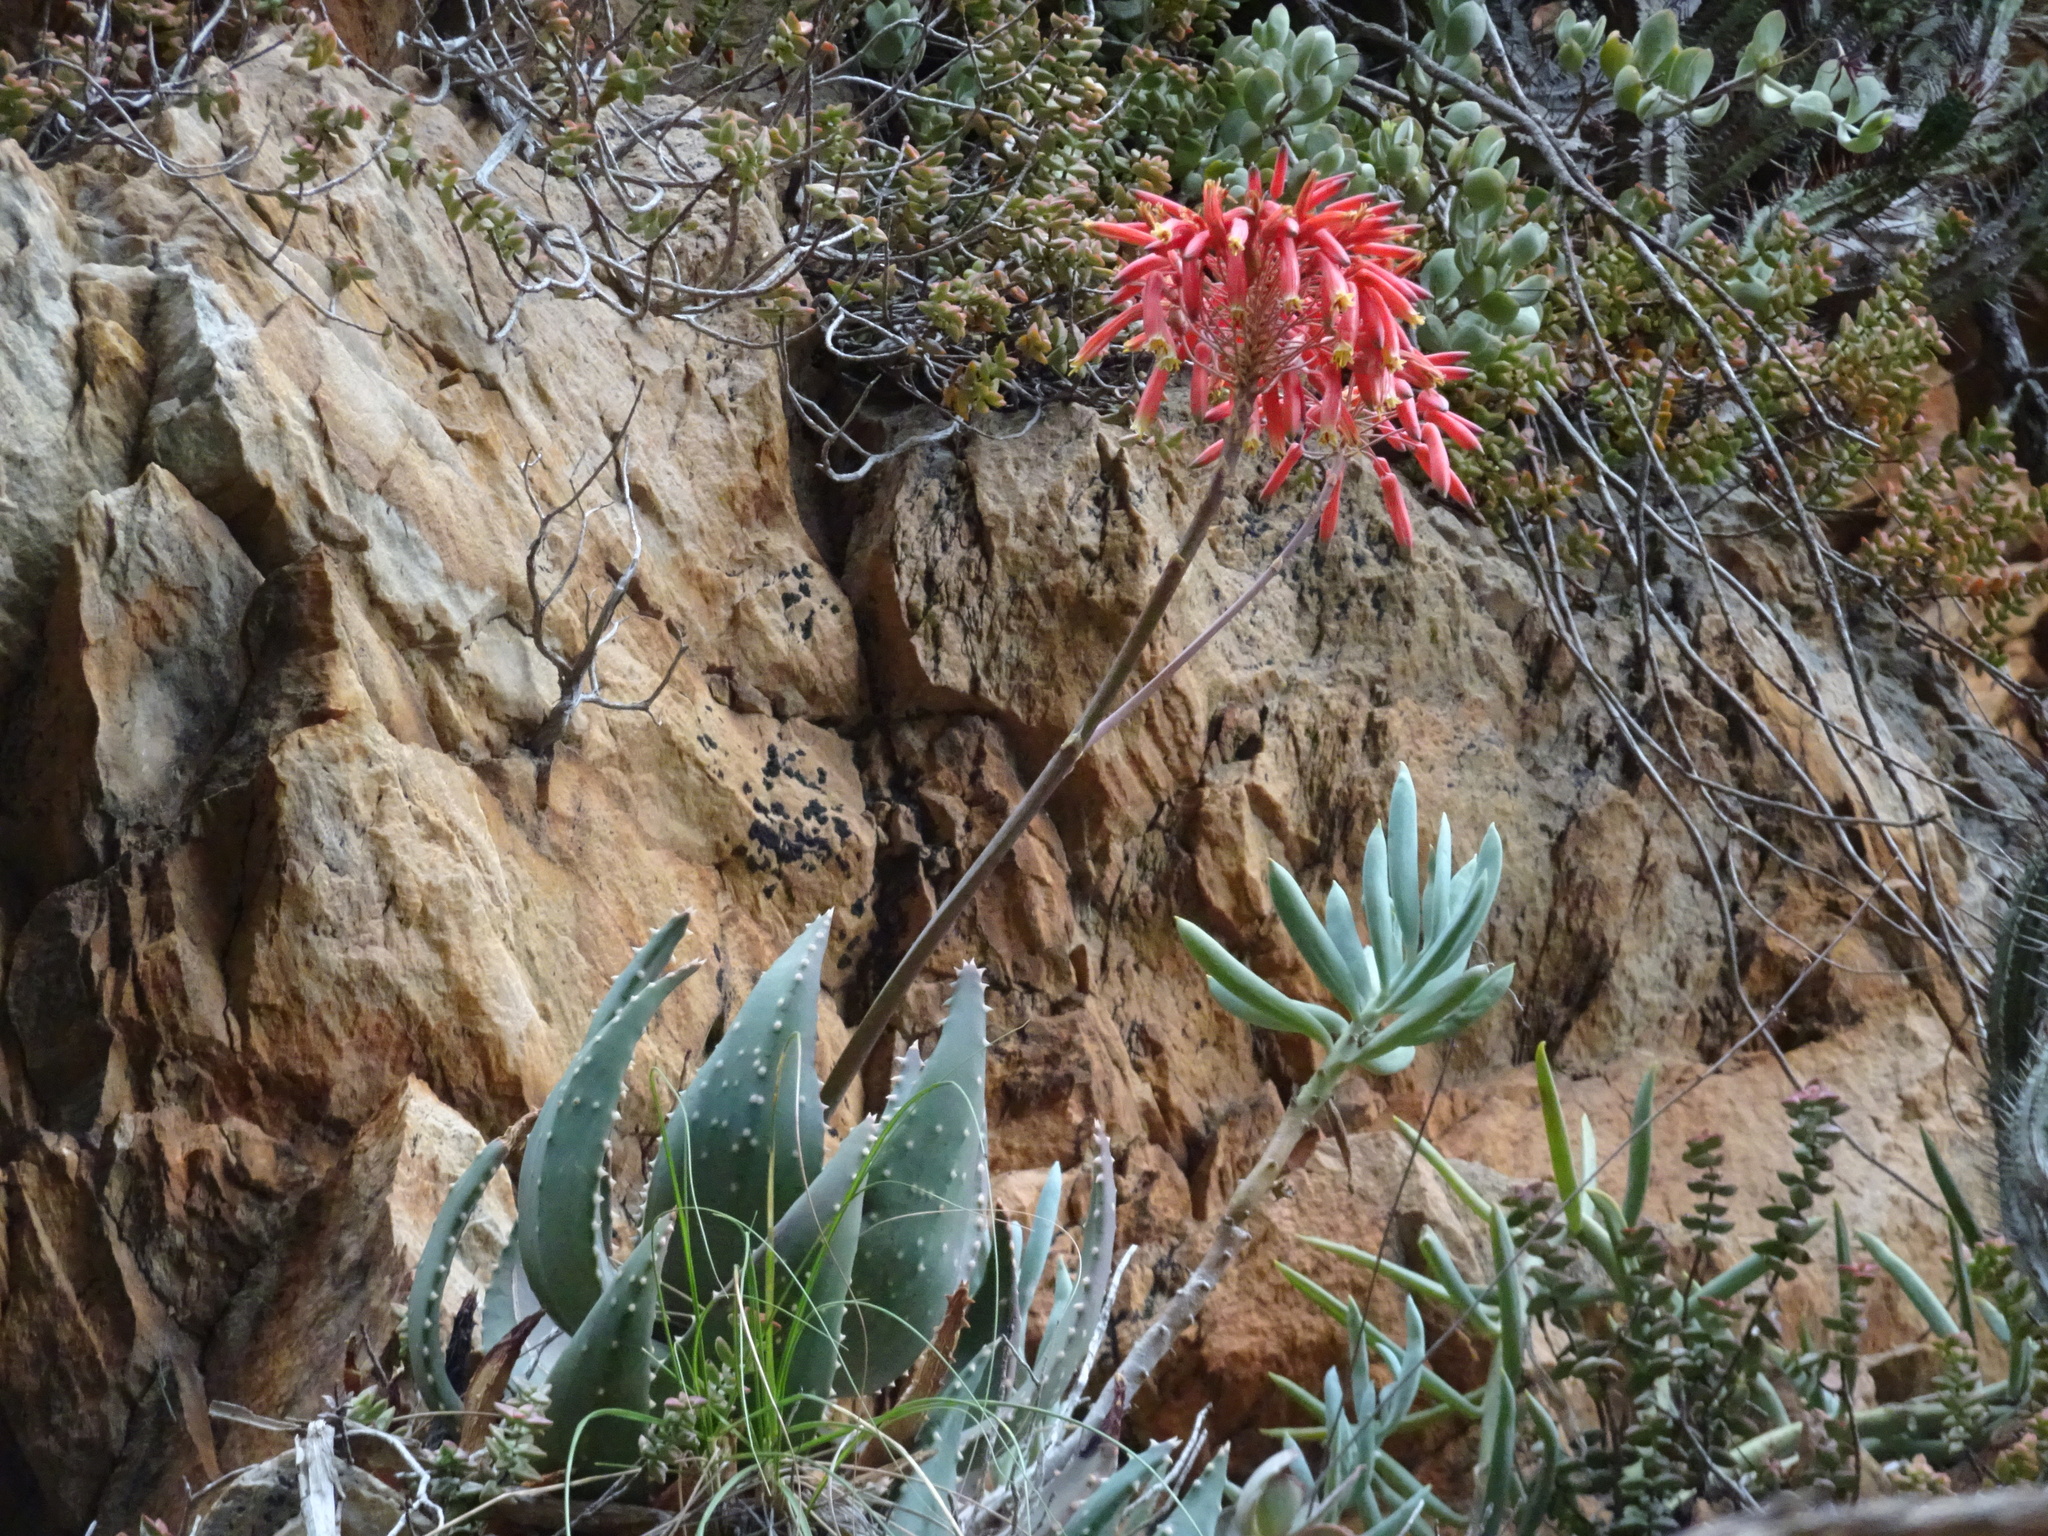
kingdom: Plantae
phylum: Tracheophyta
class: Liliopsida
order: Asparagales
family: Asphodelaceae
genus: Aloe
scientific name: Aloe comptonii
